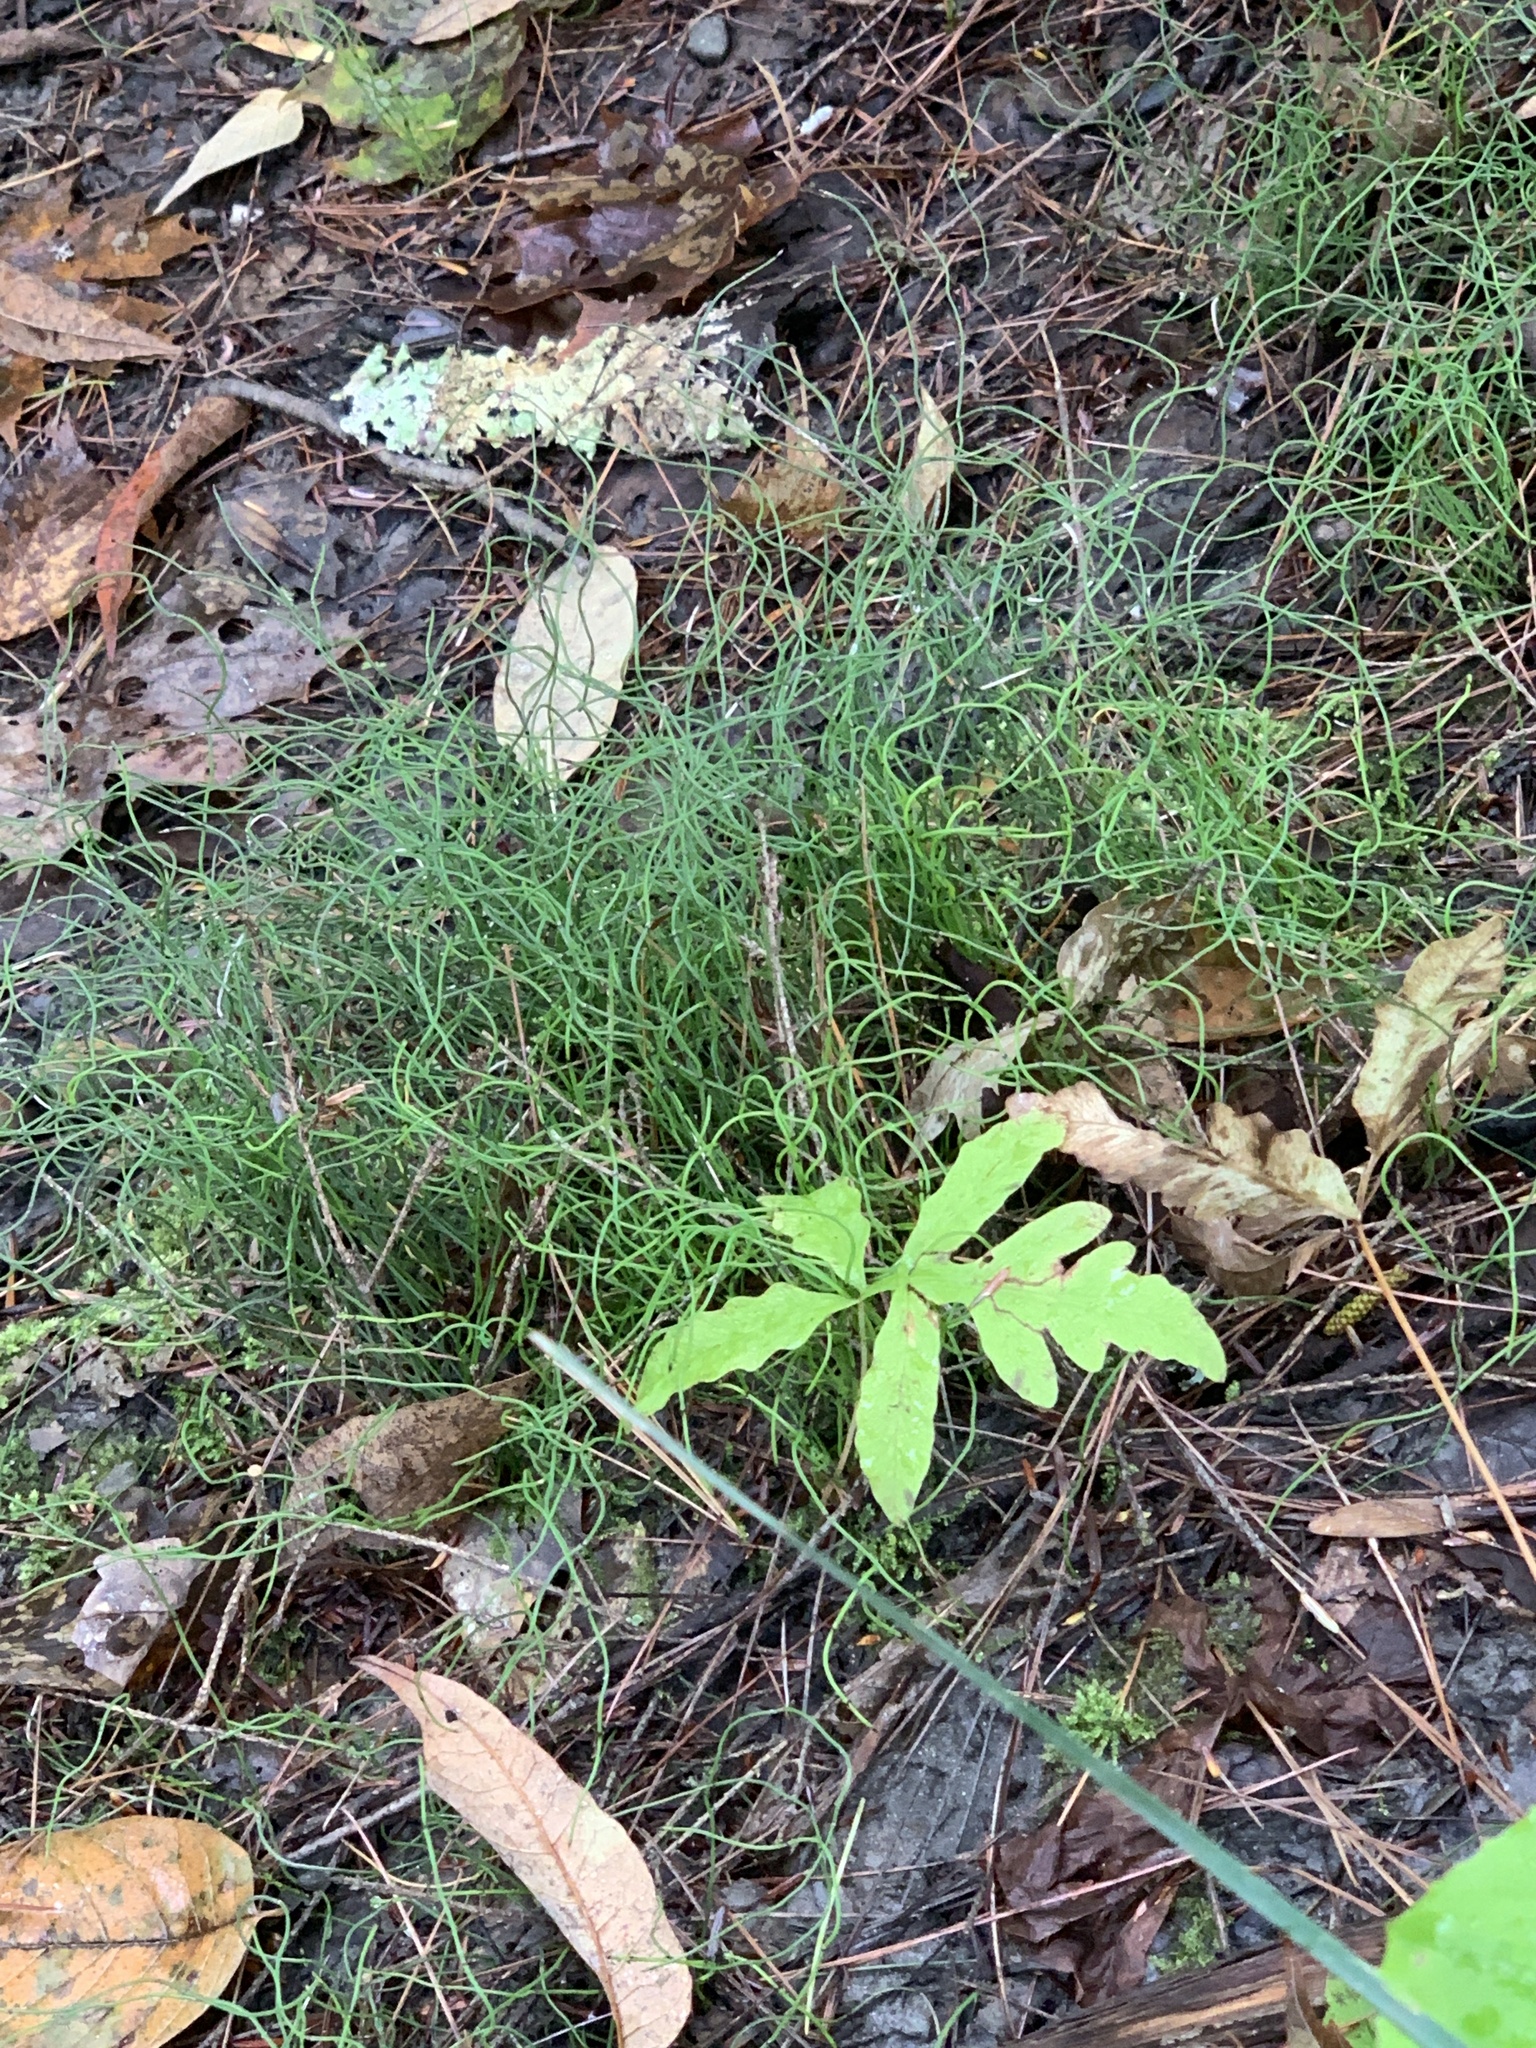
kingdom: Plantae
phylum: Tracheophyta
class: Polypodiopsida
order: Equisetales
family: Equisetaceae
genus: Equisetum
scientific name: Equisetum scirpoides
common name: Delicate horsetail
